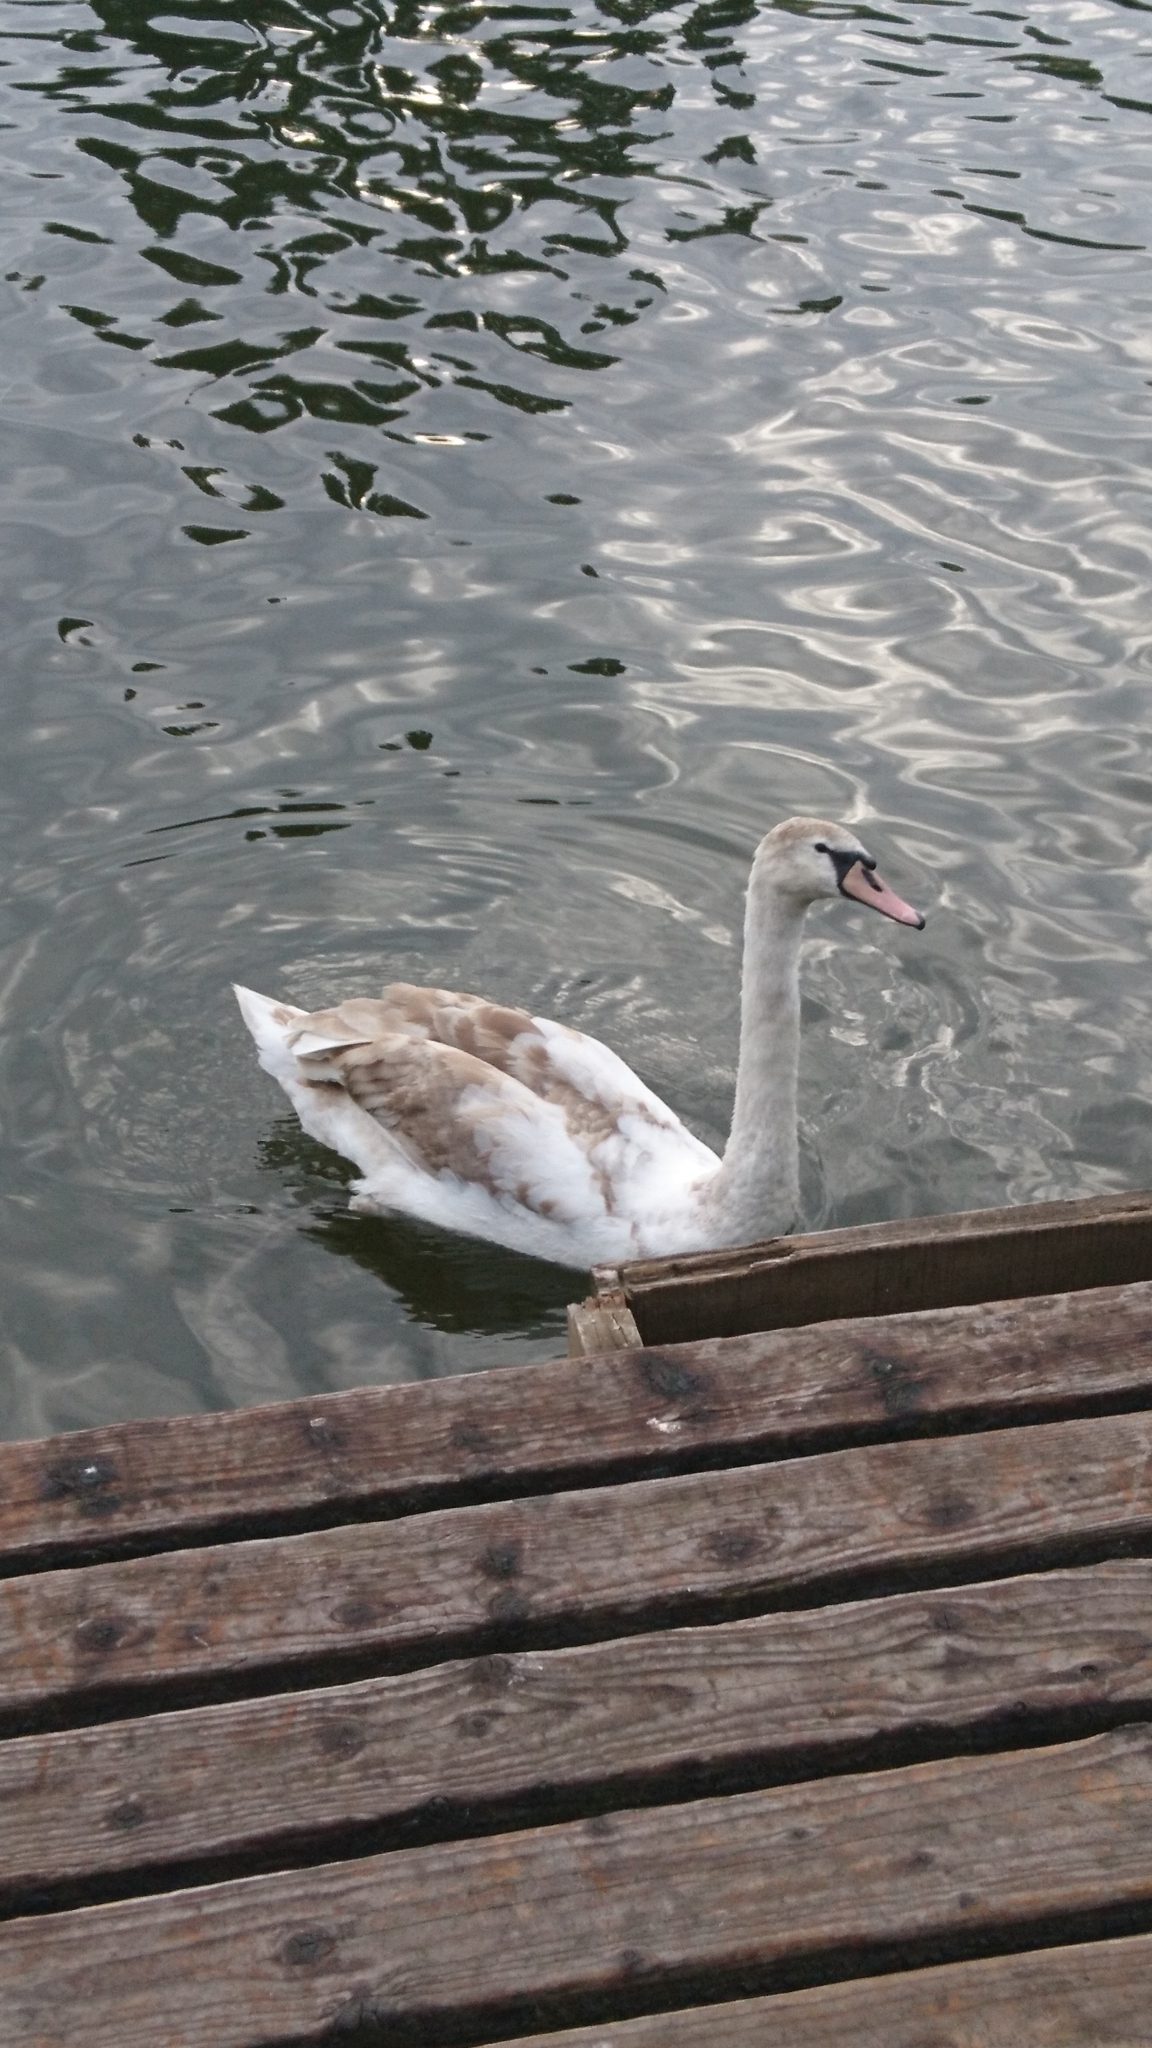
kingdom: Animalia
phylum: Chordata
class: Aves
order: Anseriformes
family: Anatidae
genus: Cygnus
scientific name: Cygnus olor
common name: Mute swan
